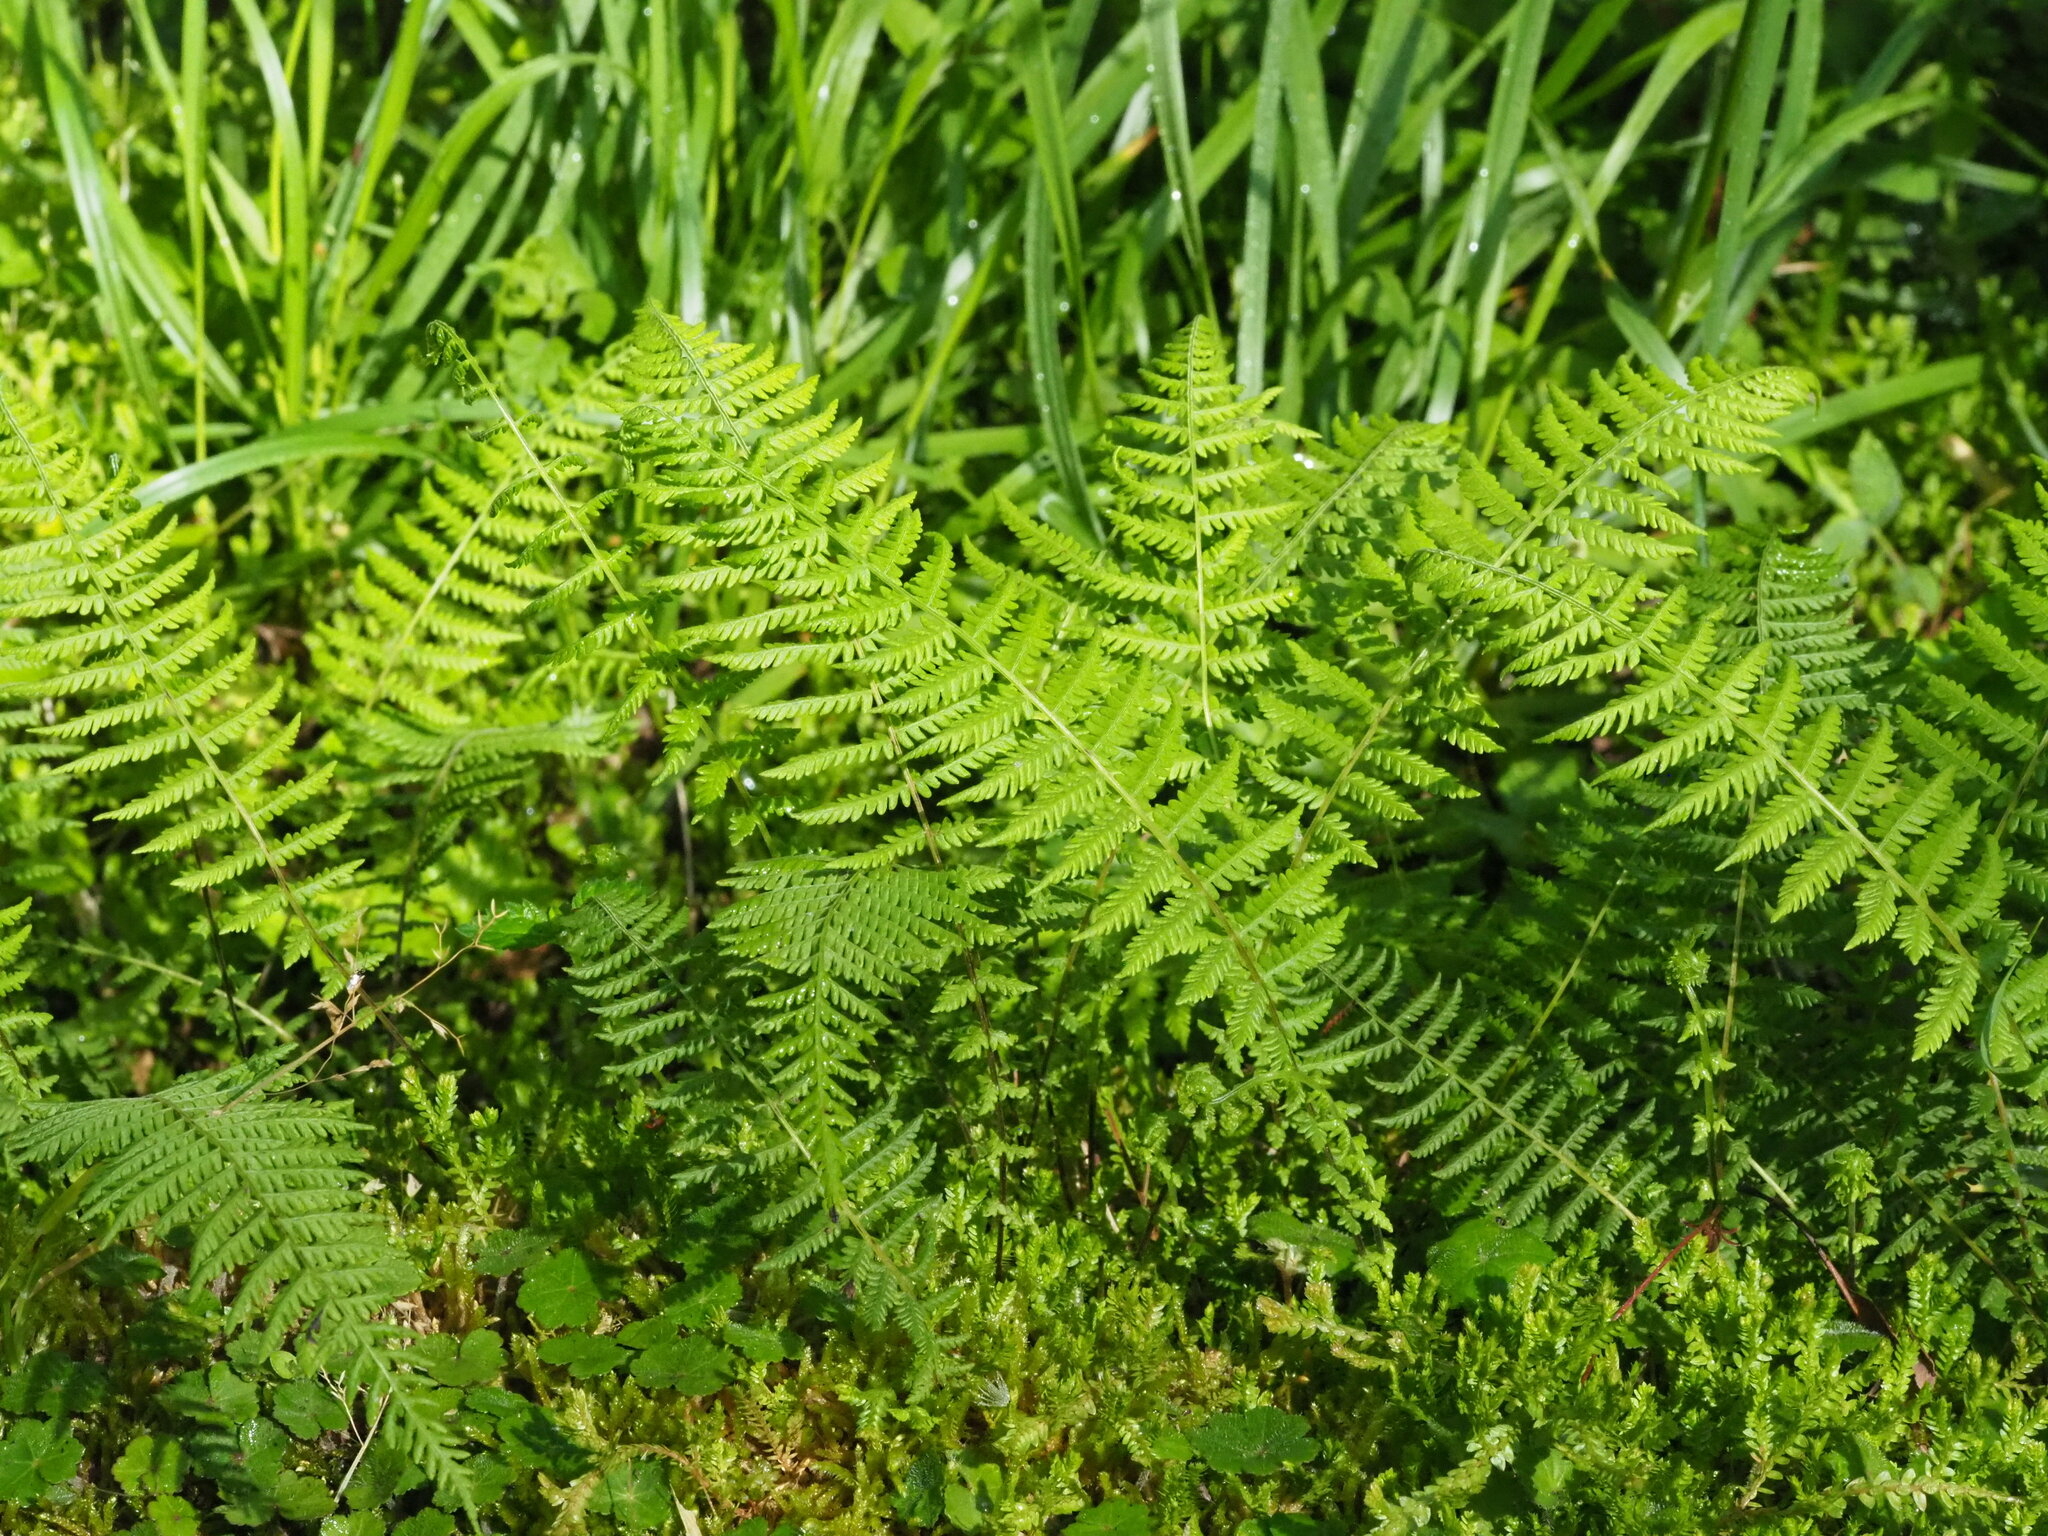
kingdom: Plantae
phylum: Tracheophyta
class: Polypodiopsida
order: Polypodiales
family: Thelypteridaceae
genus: Amauropelta
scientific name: Amauropelta beddomei
